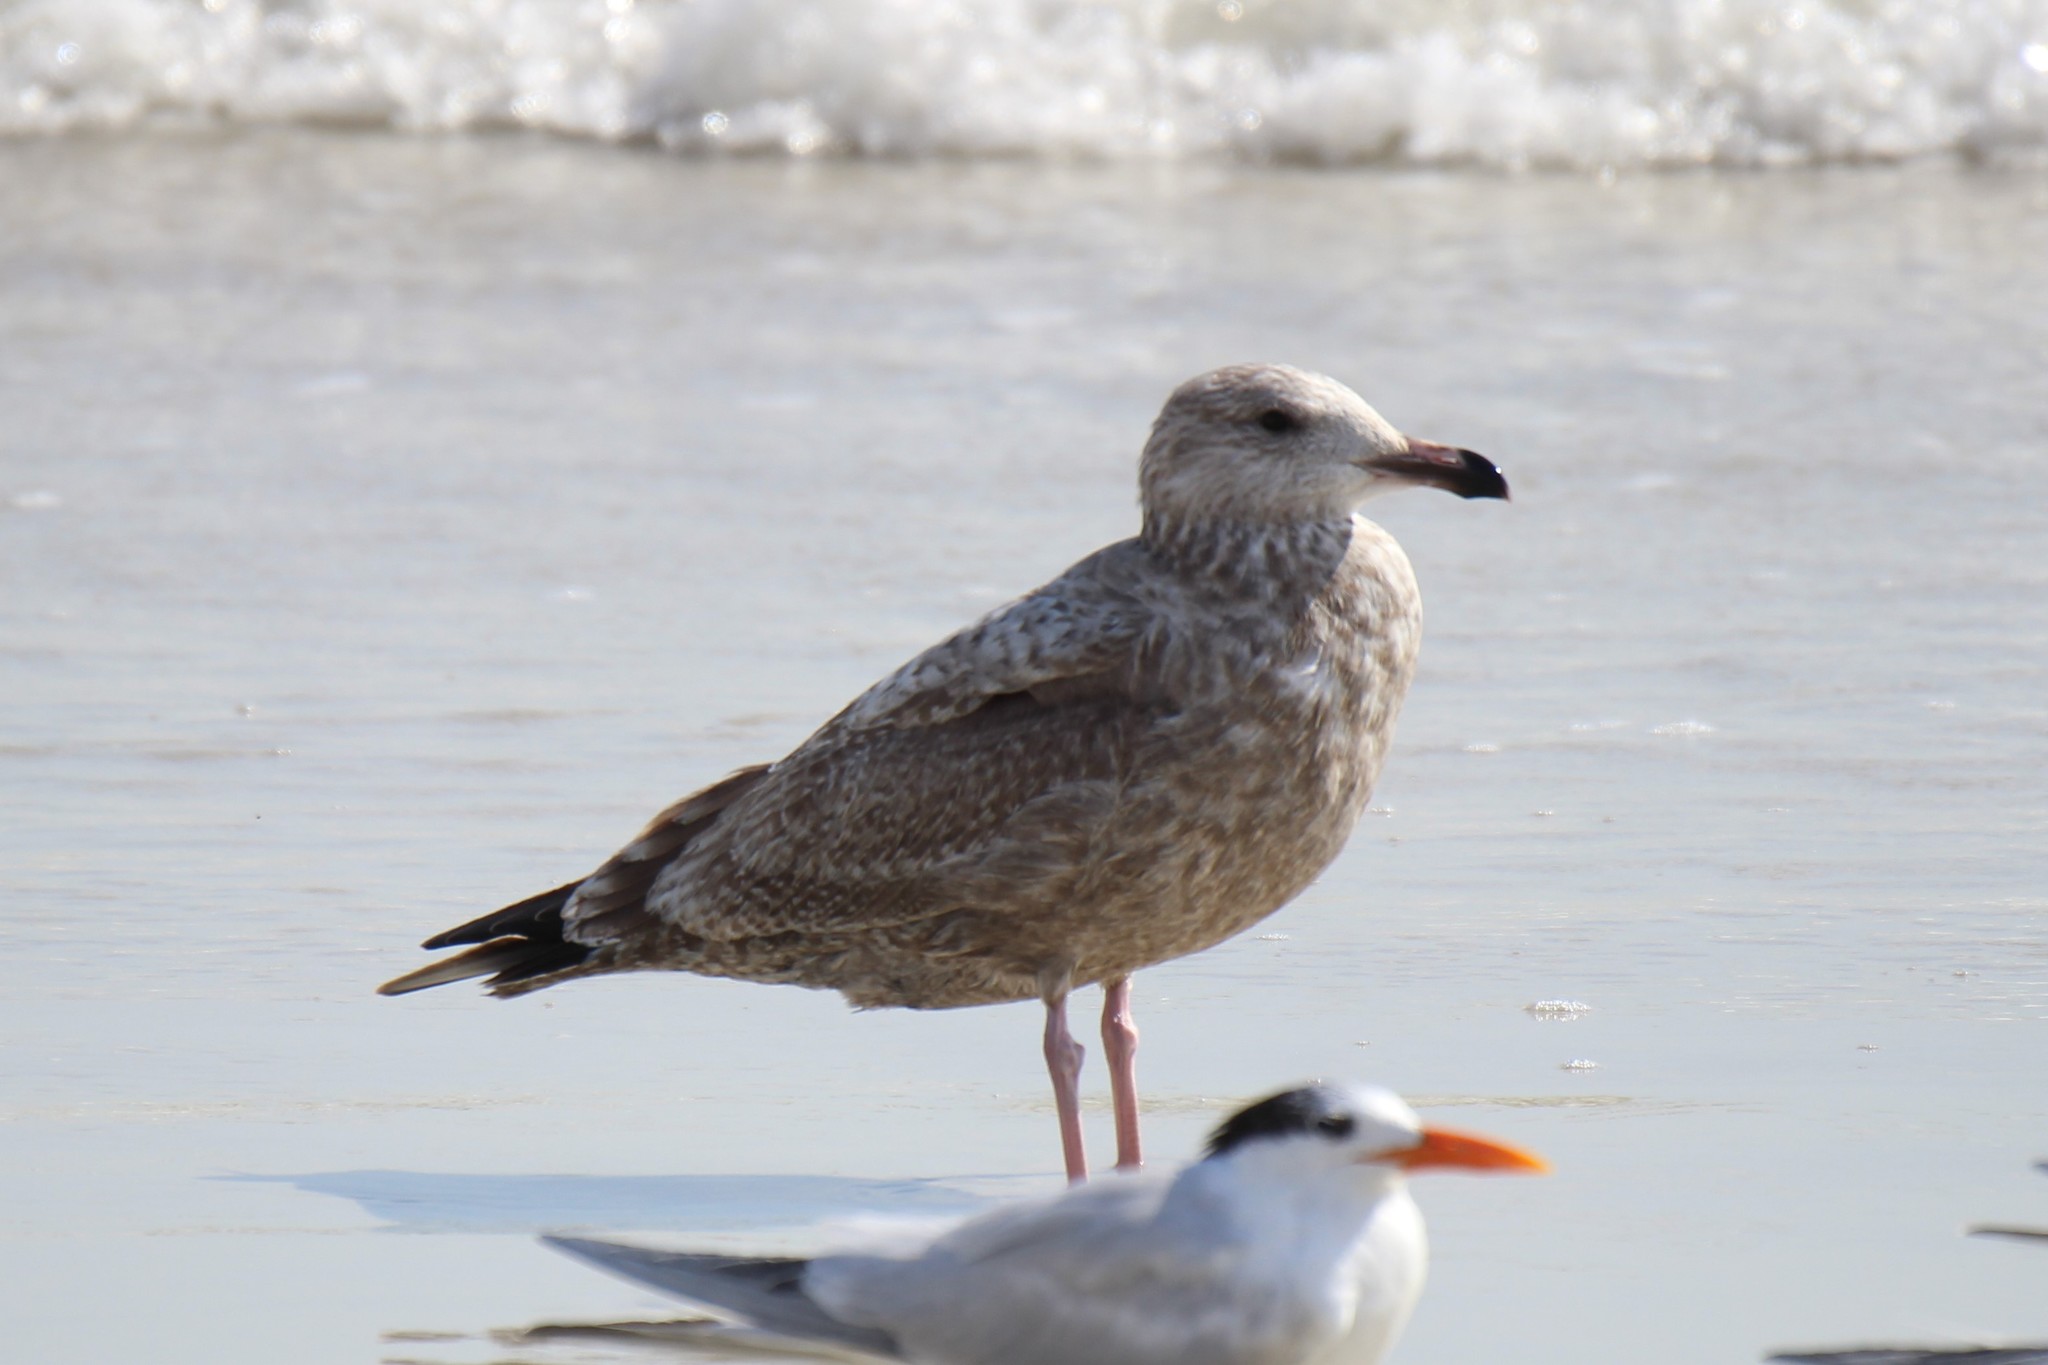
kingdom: Animalia
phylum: Chordata
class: Aves
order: Charadriiformes
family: Laridae
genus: Larus
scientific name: Larus argentatus
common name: Herring gull
